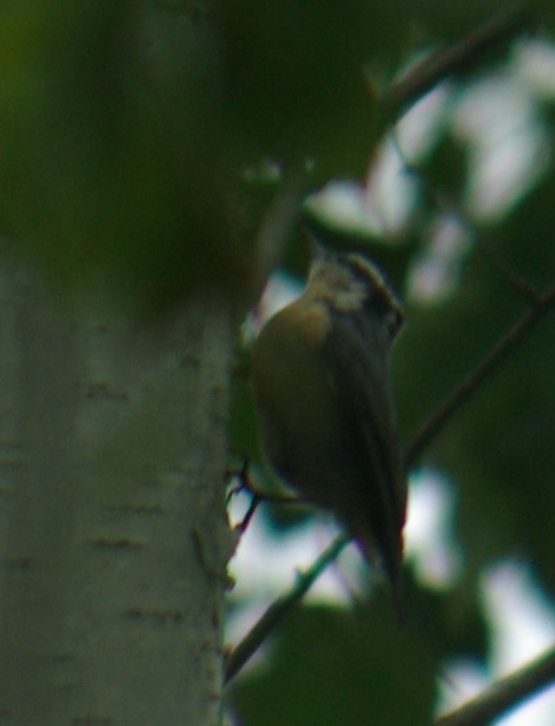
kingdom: Animalia
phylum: Chordata
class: Aves
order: Passeriformes
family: Sittidae
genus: Sitta
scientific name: Sitta canadensis
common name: Red-breasted nuthatch
